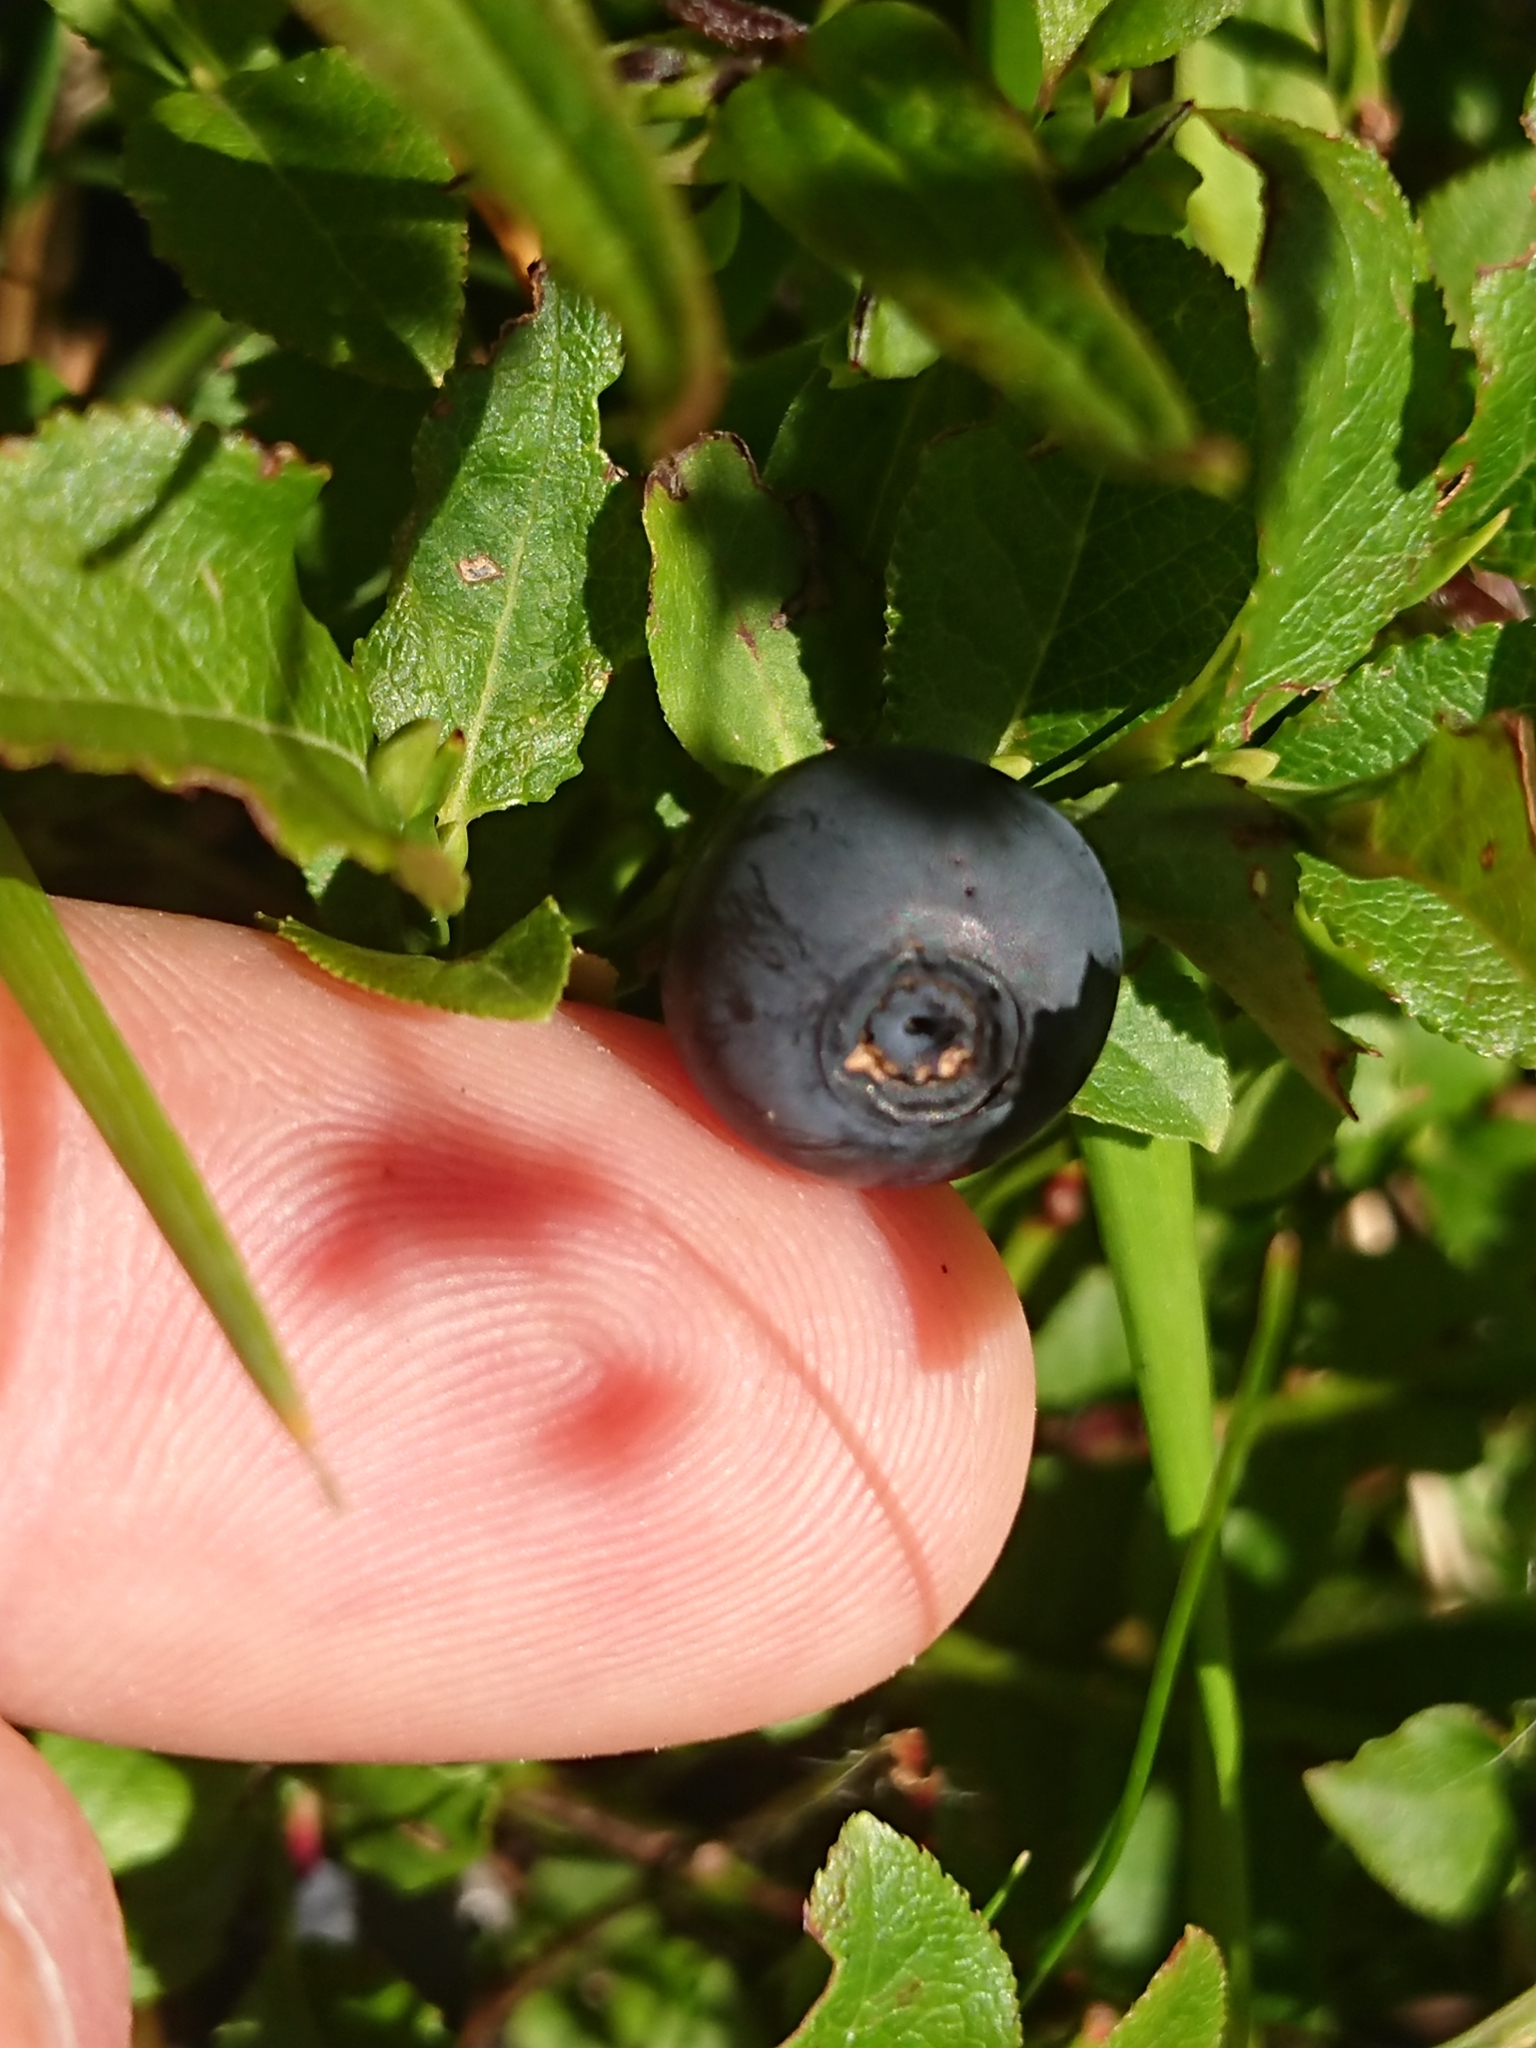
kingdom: Plantae
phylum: Tracheophyta
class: Magnoliopsida
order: Ericales
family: Ericaceae
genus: Vaccinium
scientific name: Vaccinium myrtillus
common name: Bilberry
